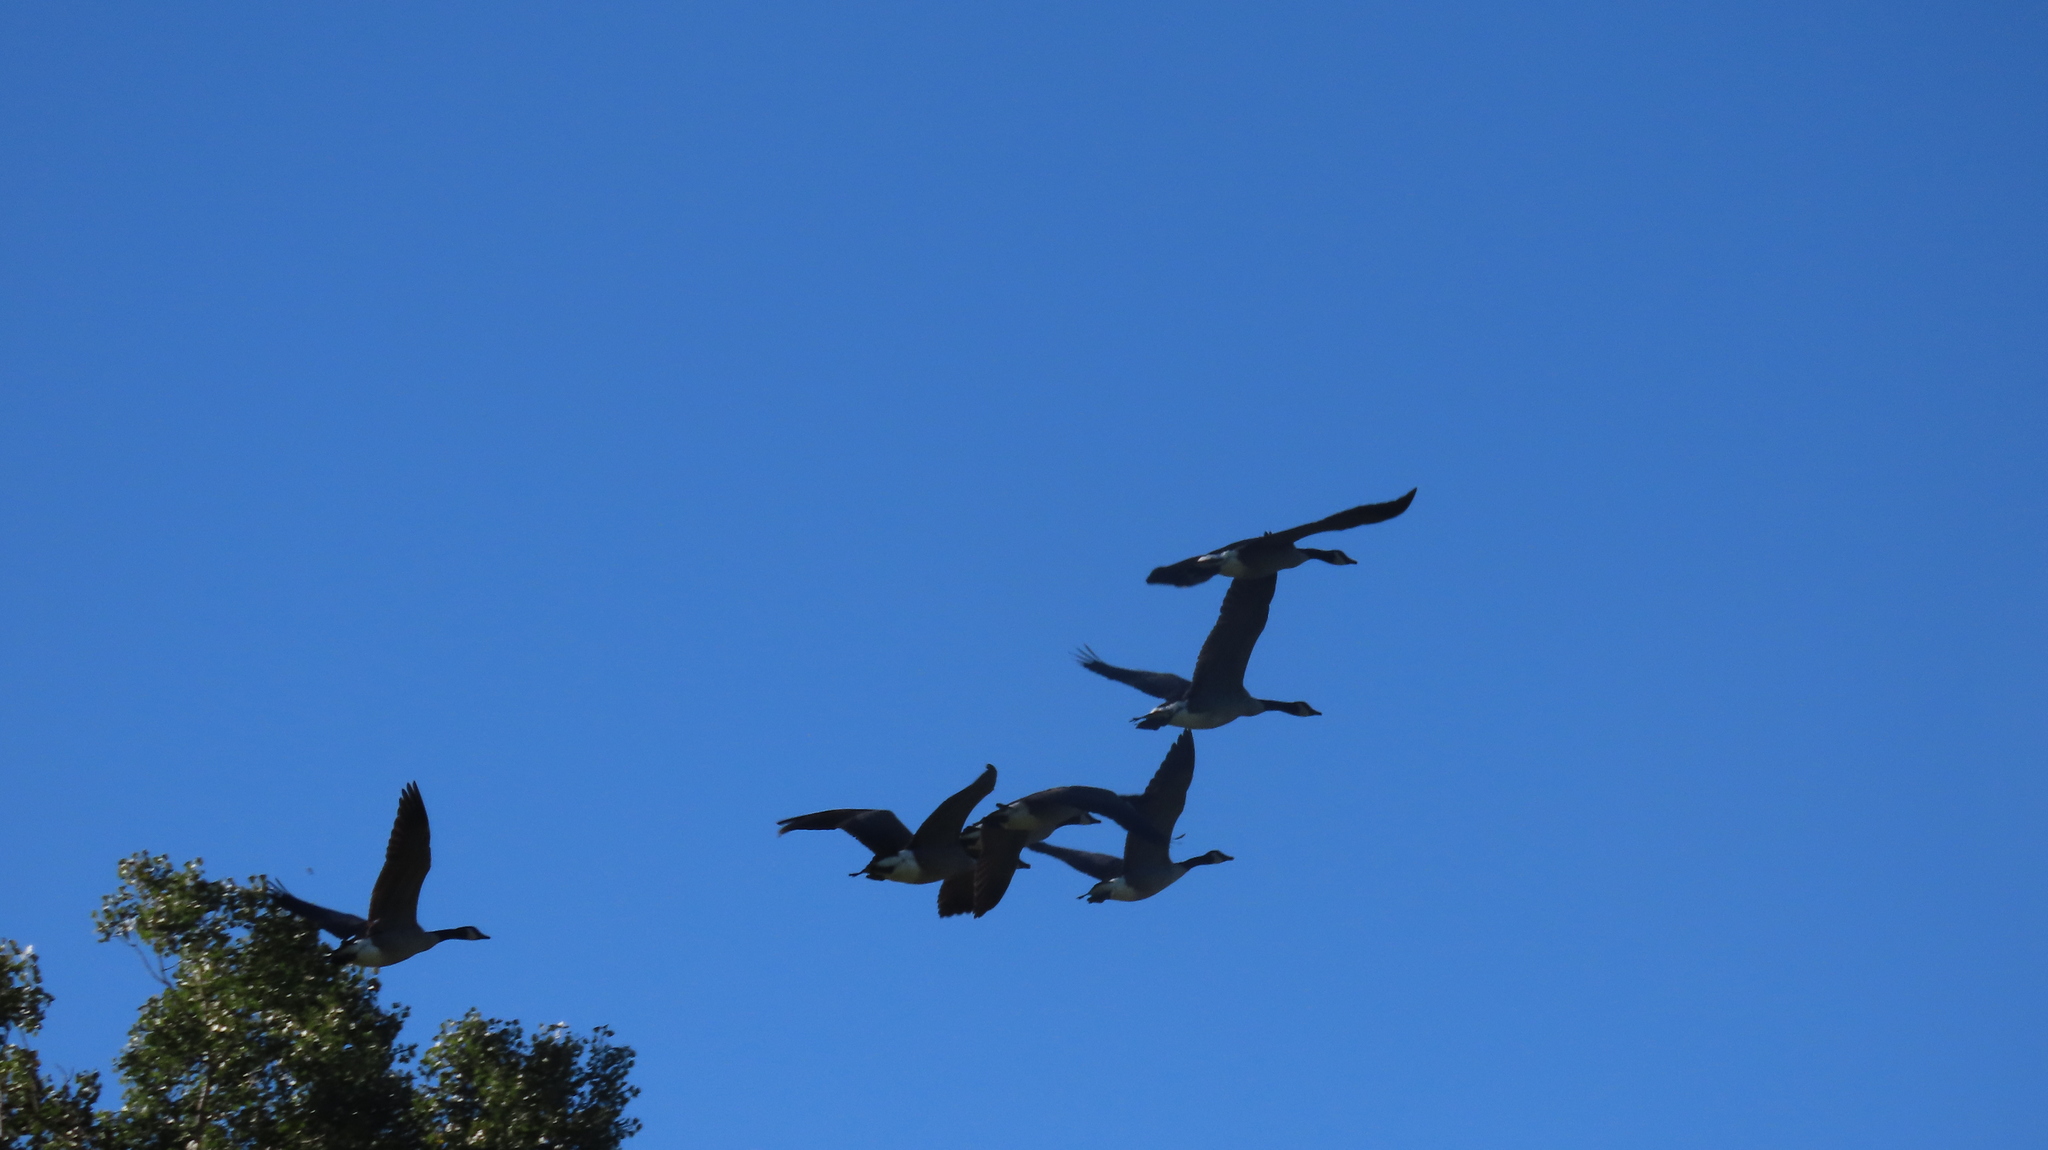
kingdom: Animalia
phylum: Chordata
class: Aves
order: Anseriformes
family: Anatidae
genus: Branta
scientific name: Branta canadensis
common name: Canada goose
